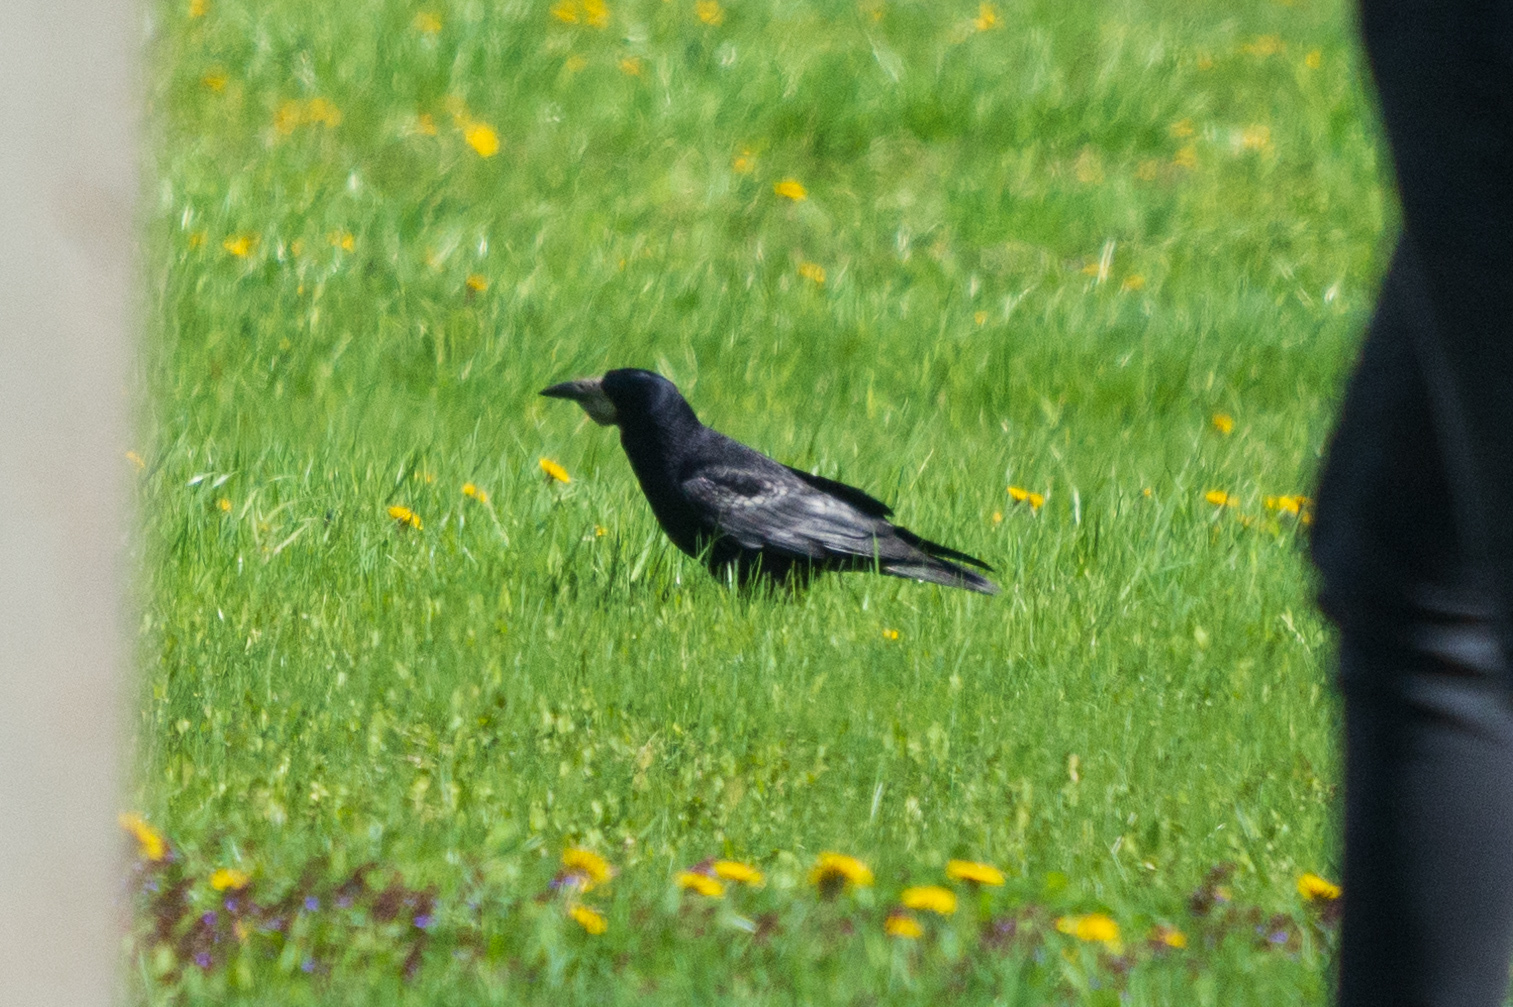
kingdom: Animalia
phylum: Chordata
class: Aves
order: Passeriformes
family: Corvidae
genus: Corvus
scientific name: Corvus frugilegus
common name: Rook
